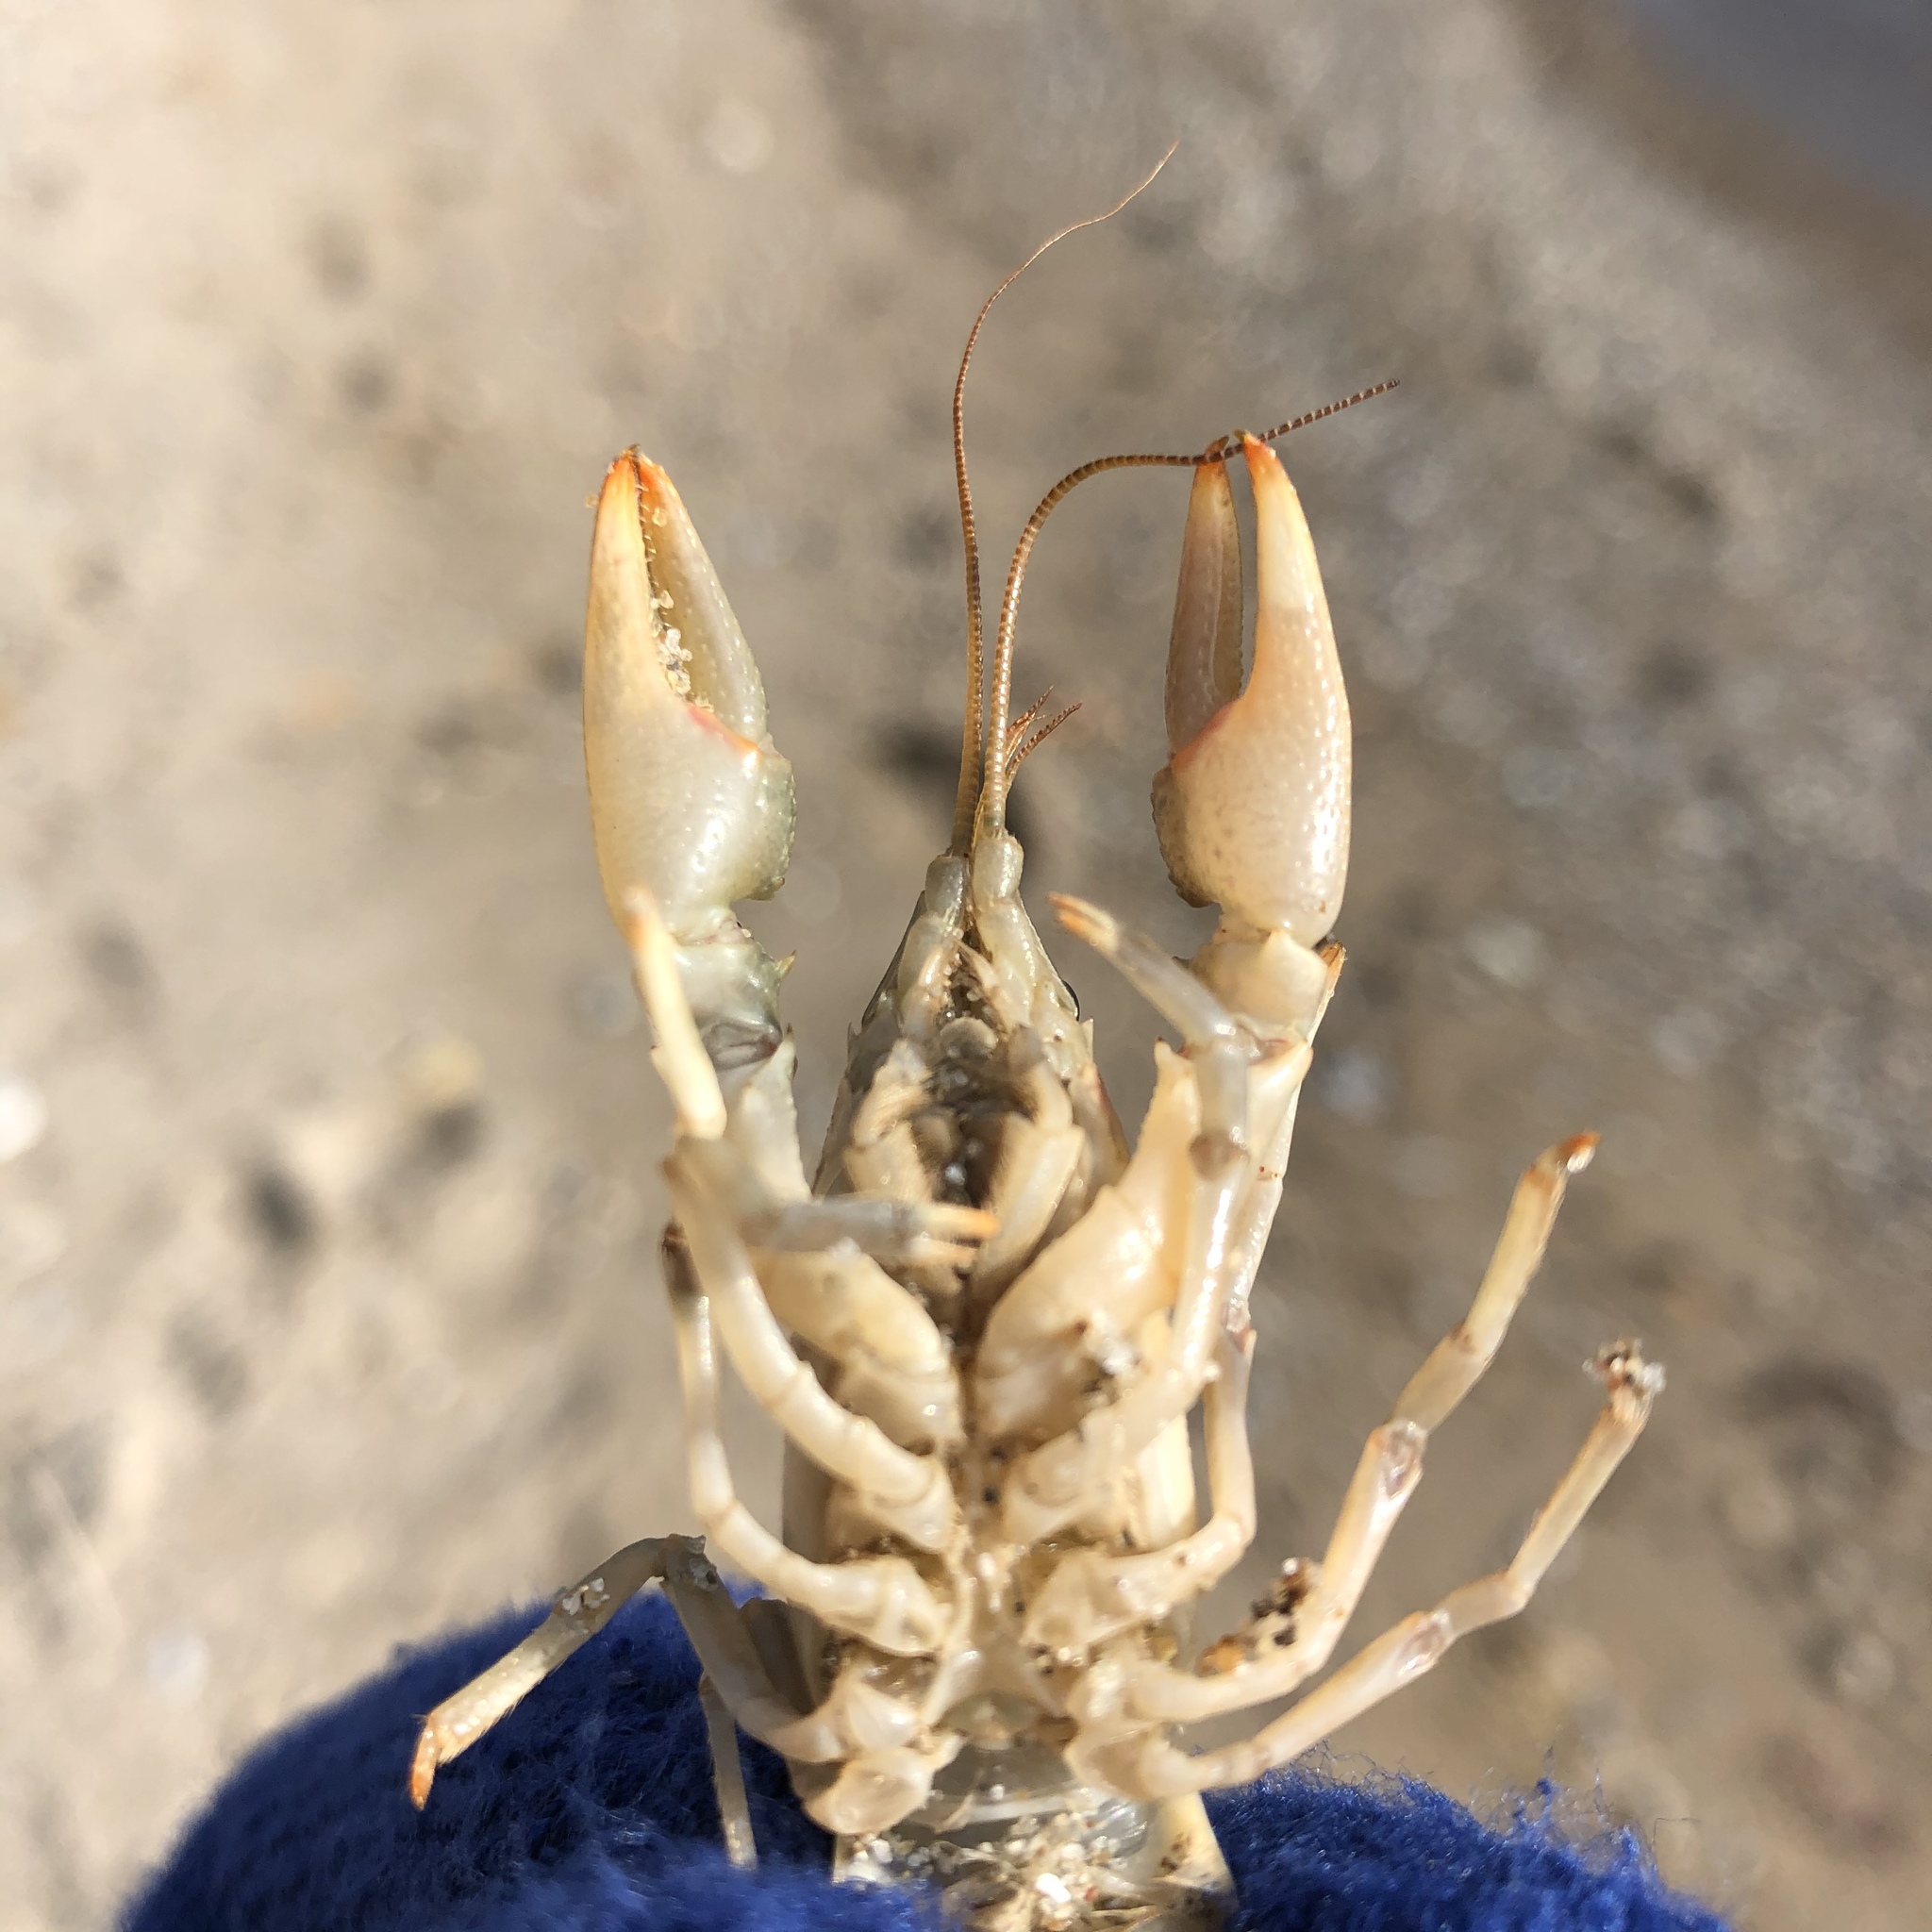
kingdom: Animalia
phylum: Arthropoda
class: Malacostraca
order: Decapoda
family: Cambaridae
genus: Faxonius
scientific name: Faxonius propinquus
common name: Northern clearwater crayfish
